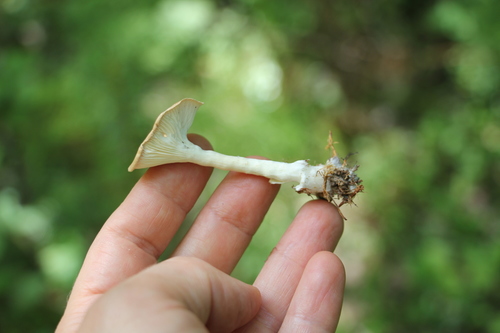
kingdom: Fungi
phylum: Basidiomycota
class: Agaricomycetes
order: Agaricales
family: Tricholomataceae
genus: Infundibulicybe
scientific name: Infundibulicybe gibba
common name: Common funnel
